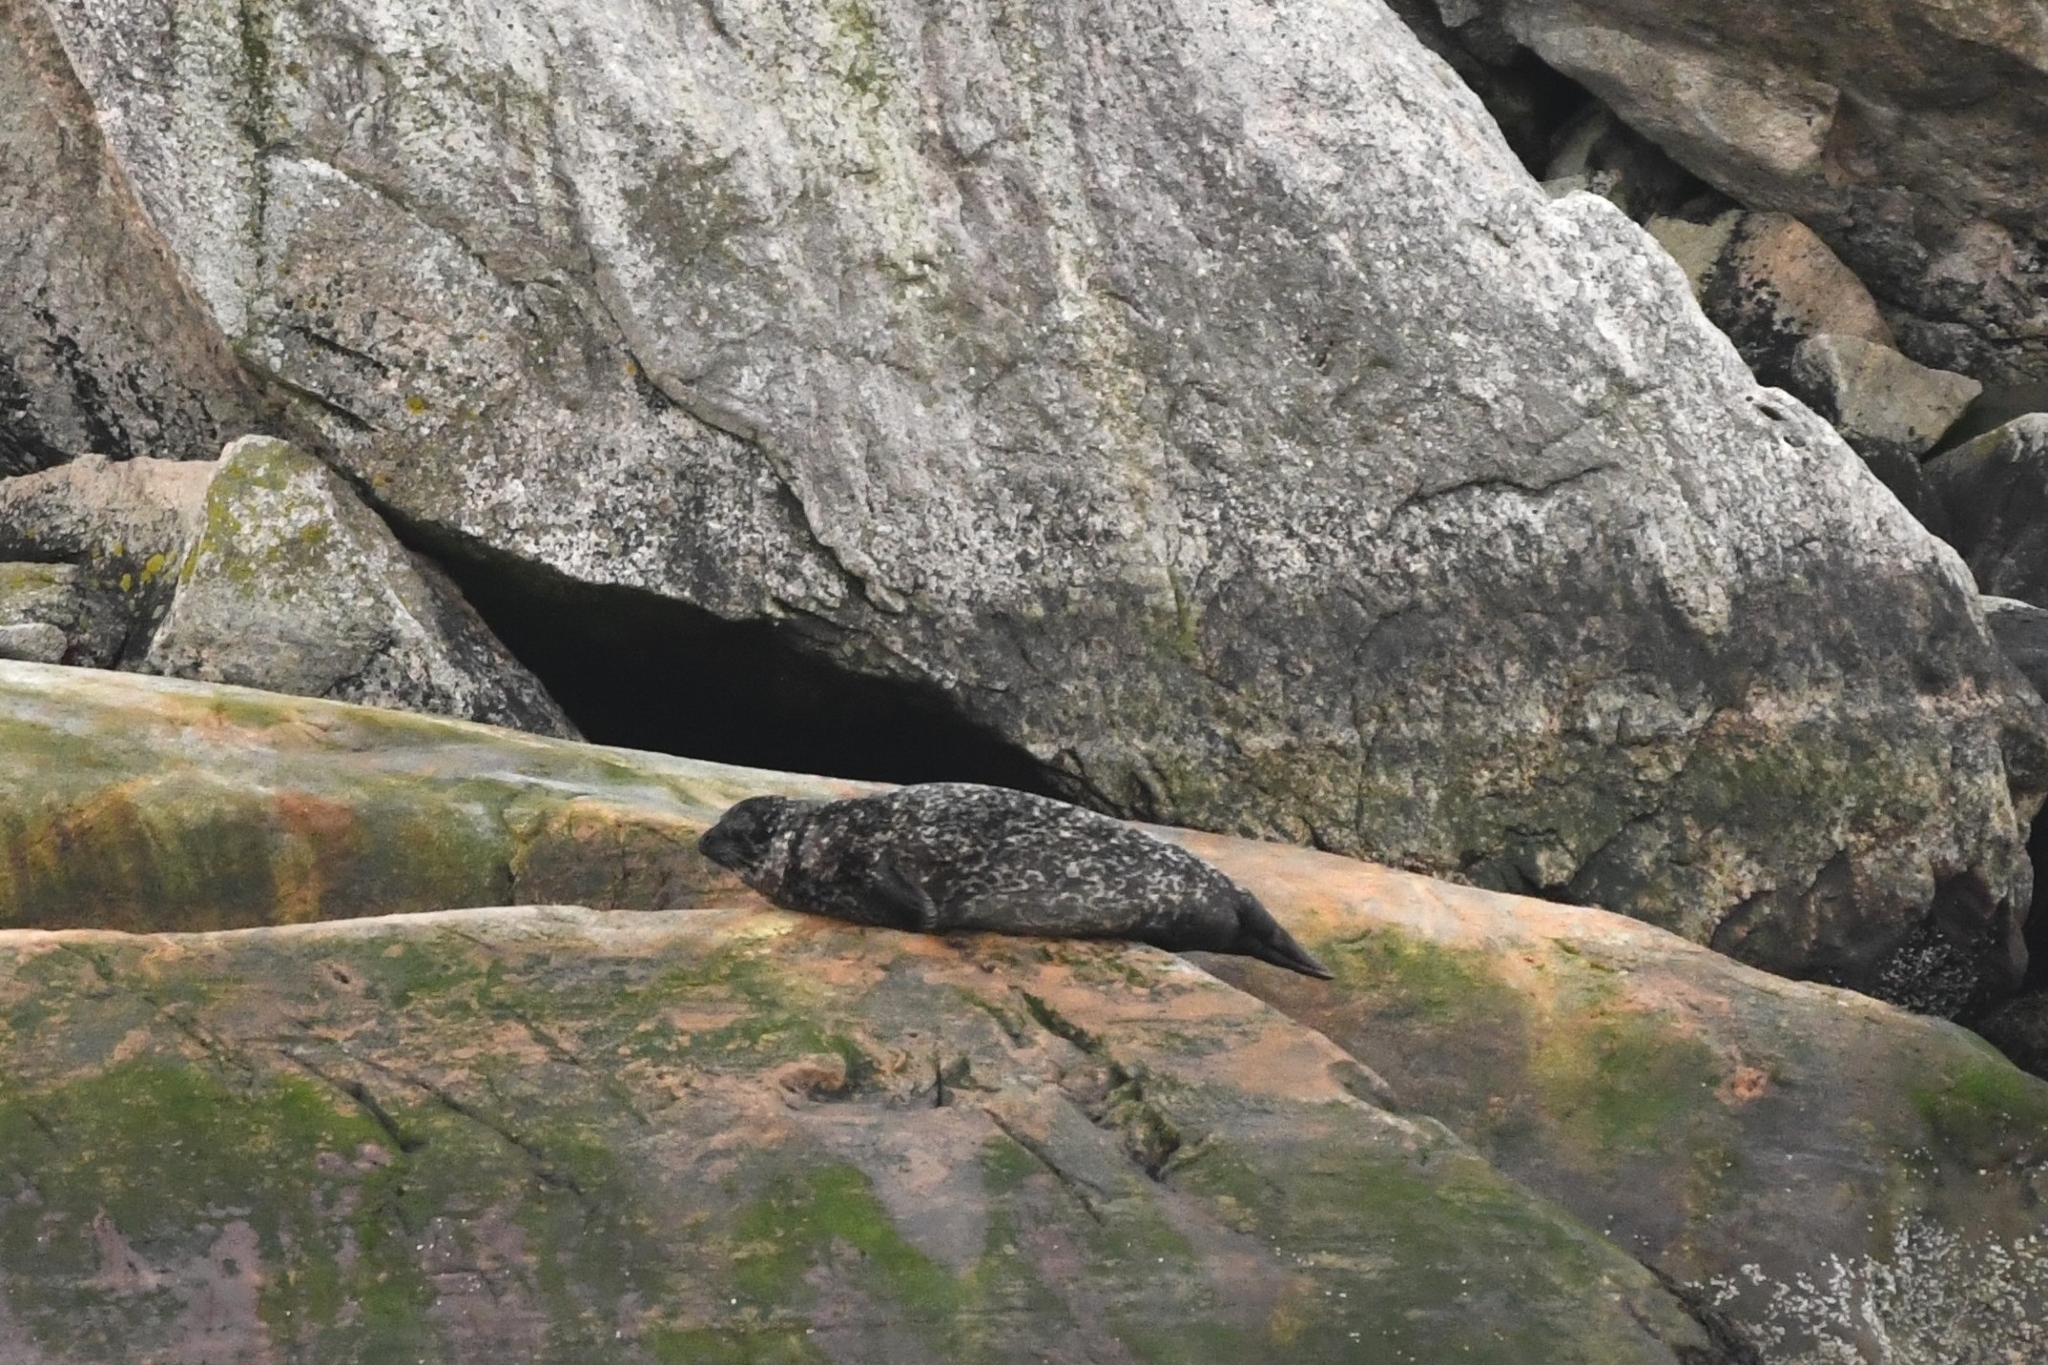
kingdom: Animalia
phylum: Chordata
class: Mammalia
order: Carnivora
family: Phocidae
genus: Phoca
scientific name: Phoca vitulina
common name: Harbor seal
